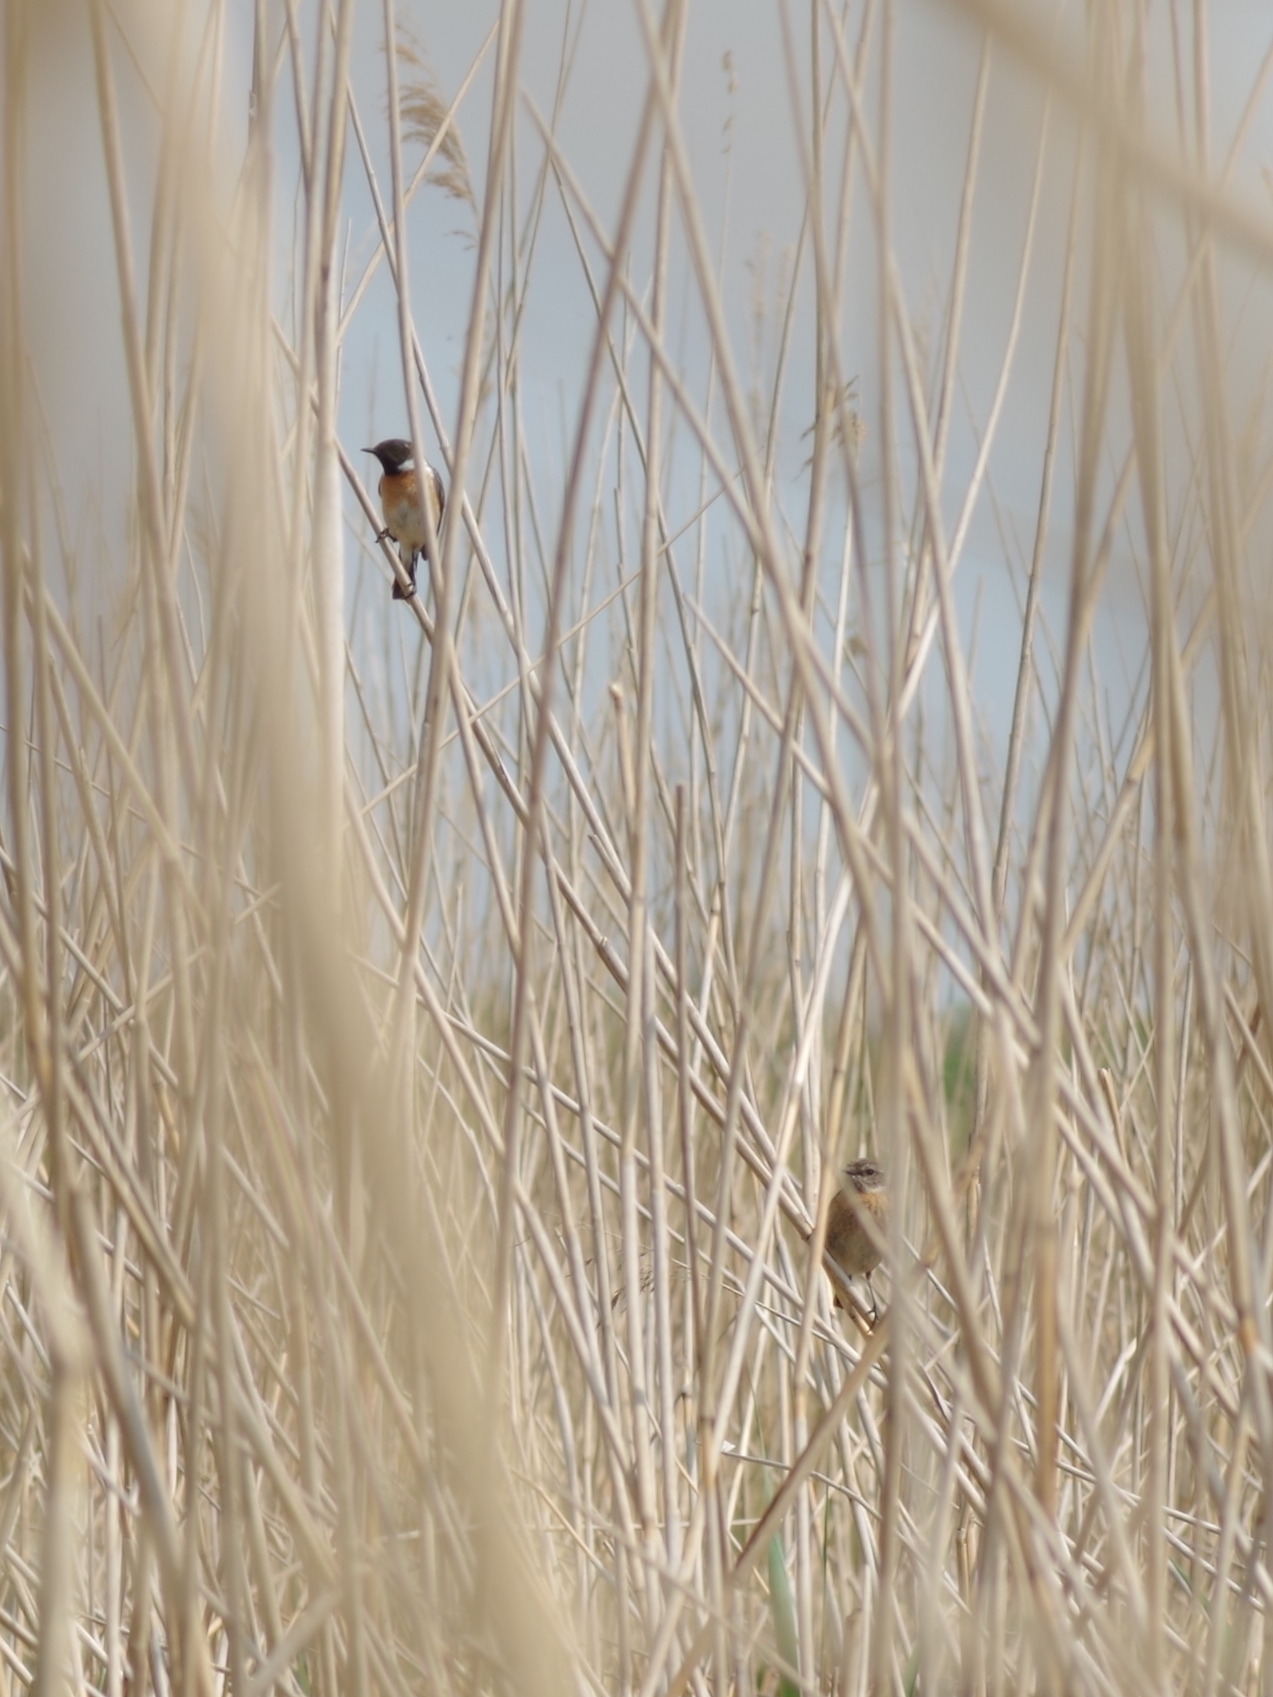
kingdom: Animalia
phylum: Chordata
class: Aves
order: Passeriformes
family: Muscicapidae
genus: Saxicola
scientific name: Saxicola rubicola
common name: European stonechat
